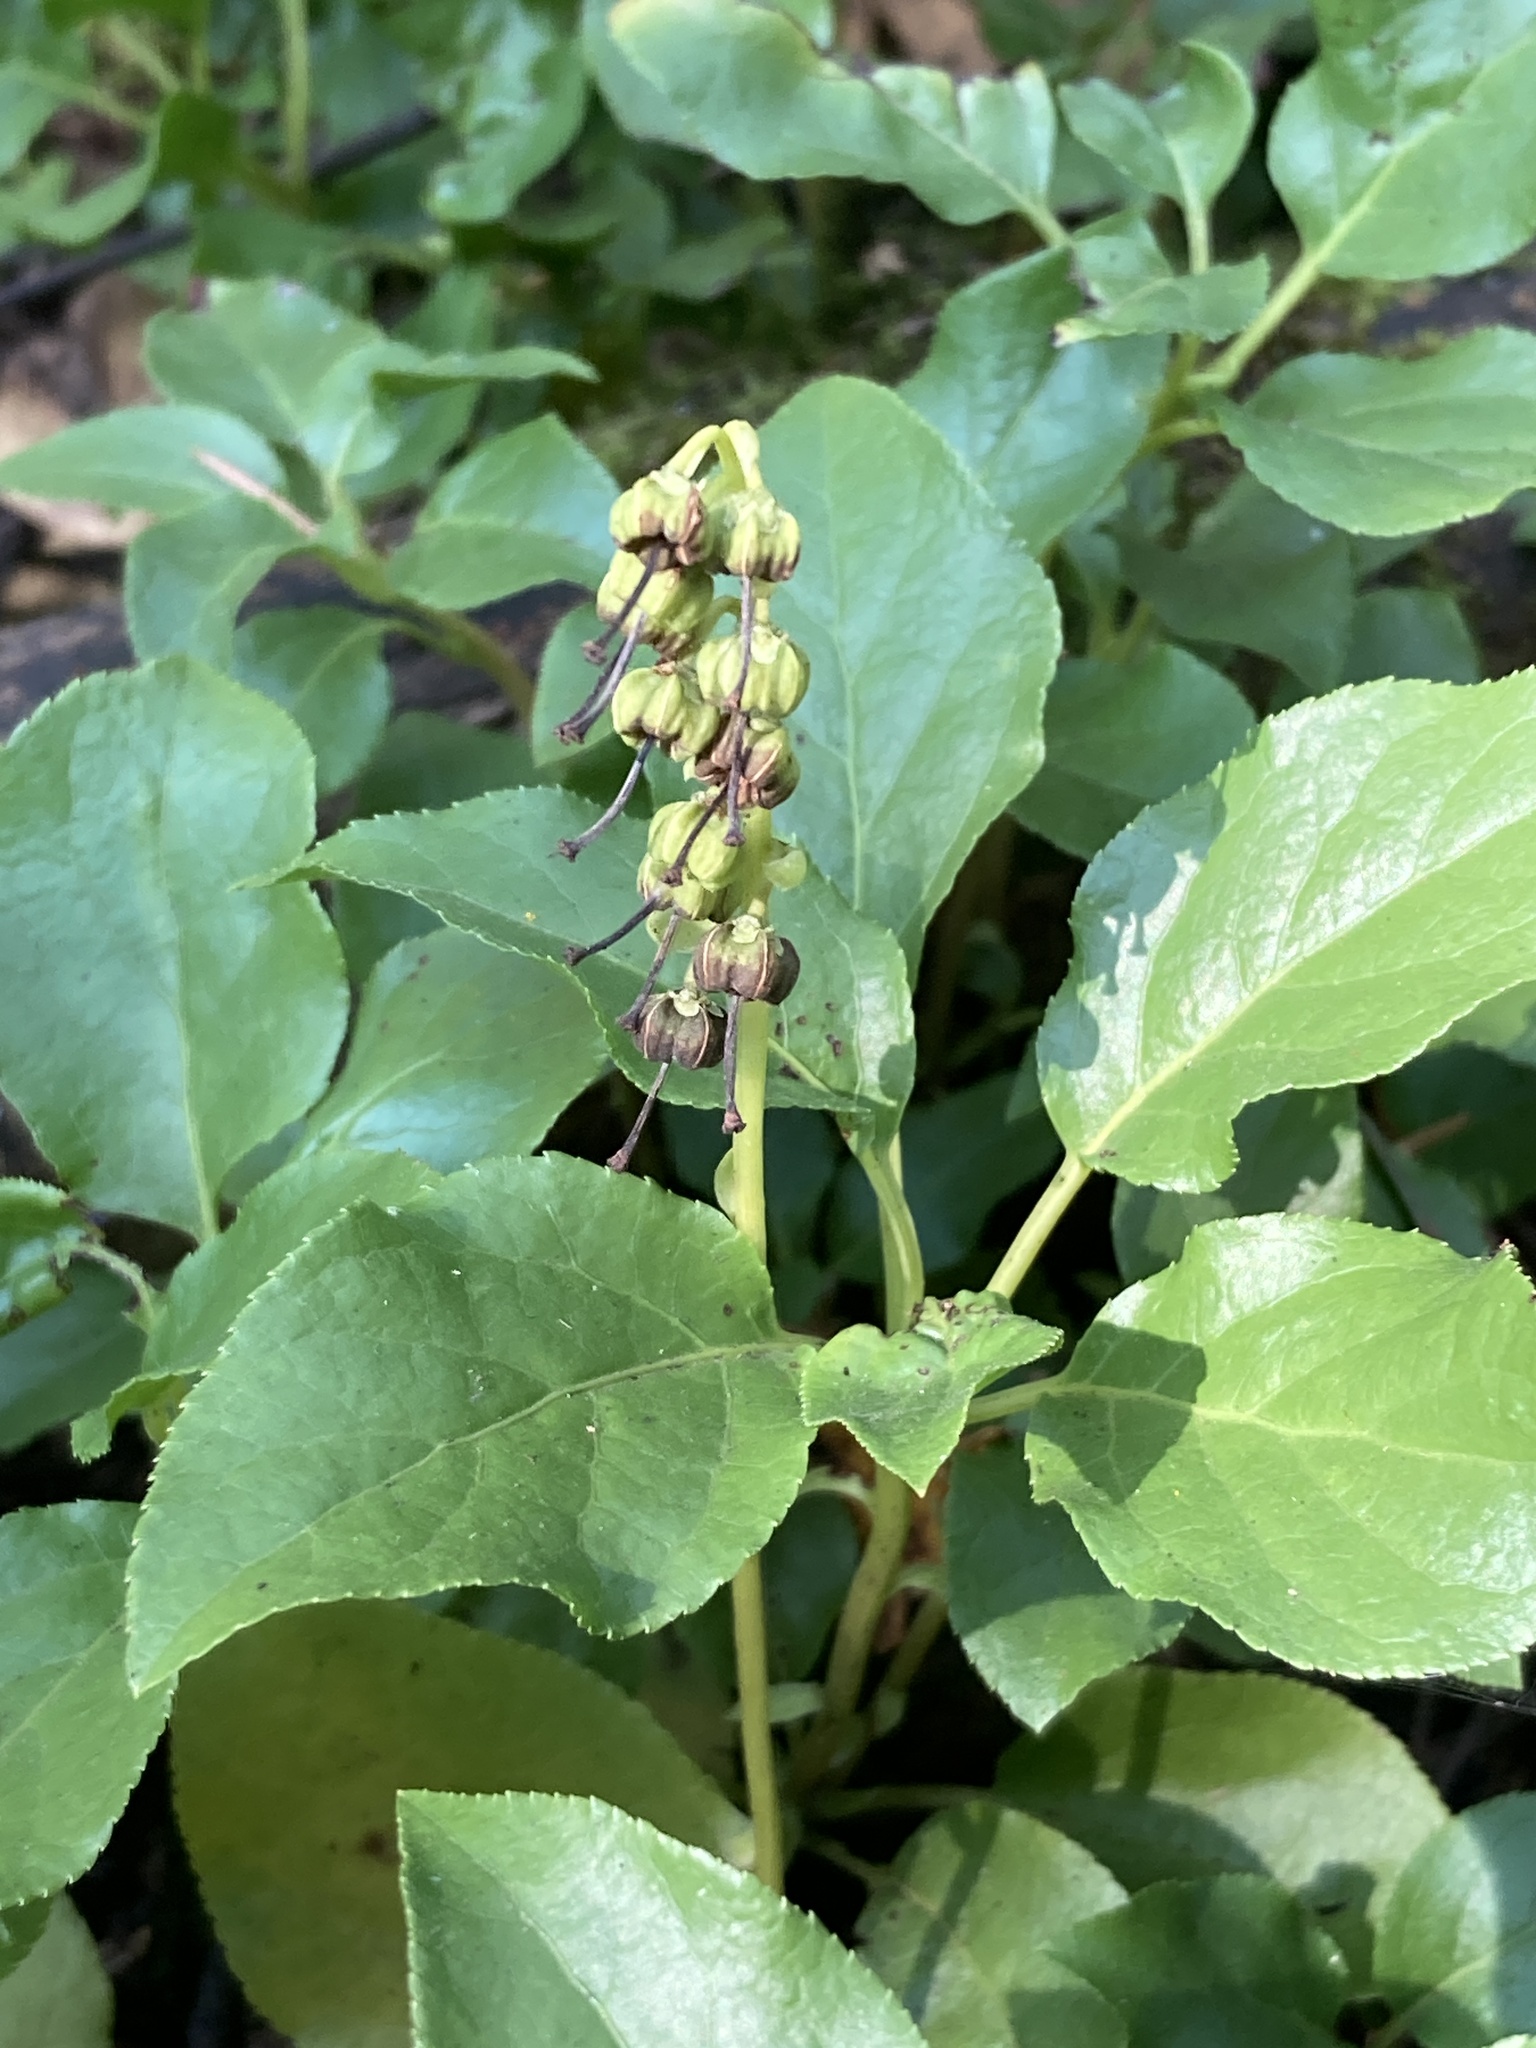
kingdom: Plantae
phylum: Tracheophyta
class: Magnoliopsida
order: Ericales
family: Ericaceae
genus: Orthilia
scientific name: Orthilia secunda
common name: One-sided orthilia
